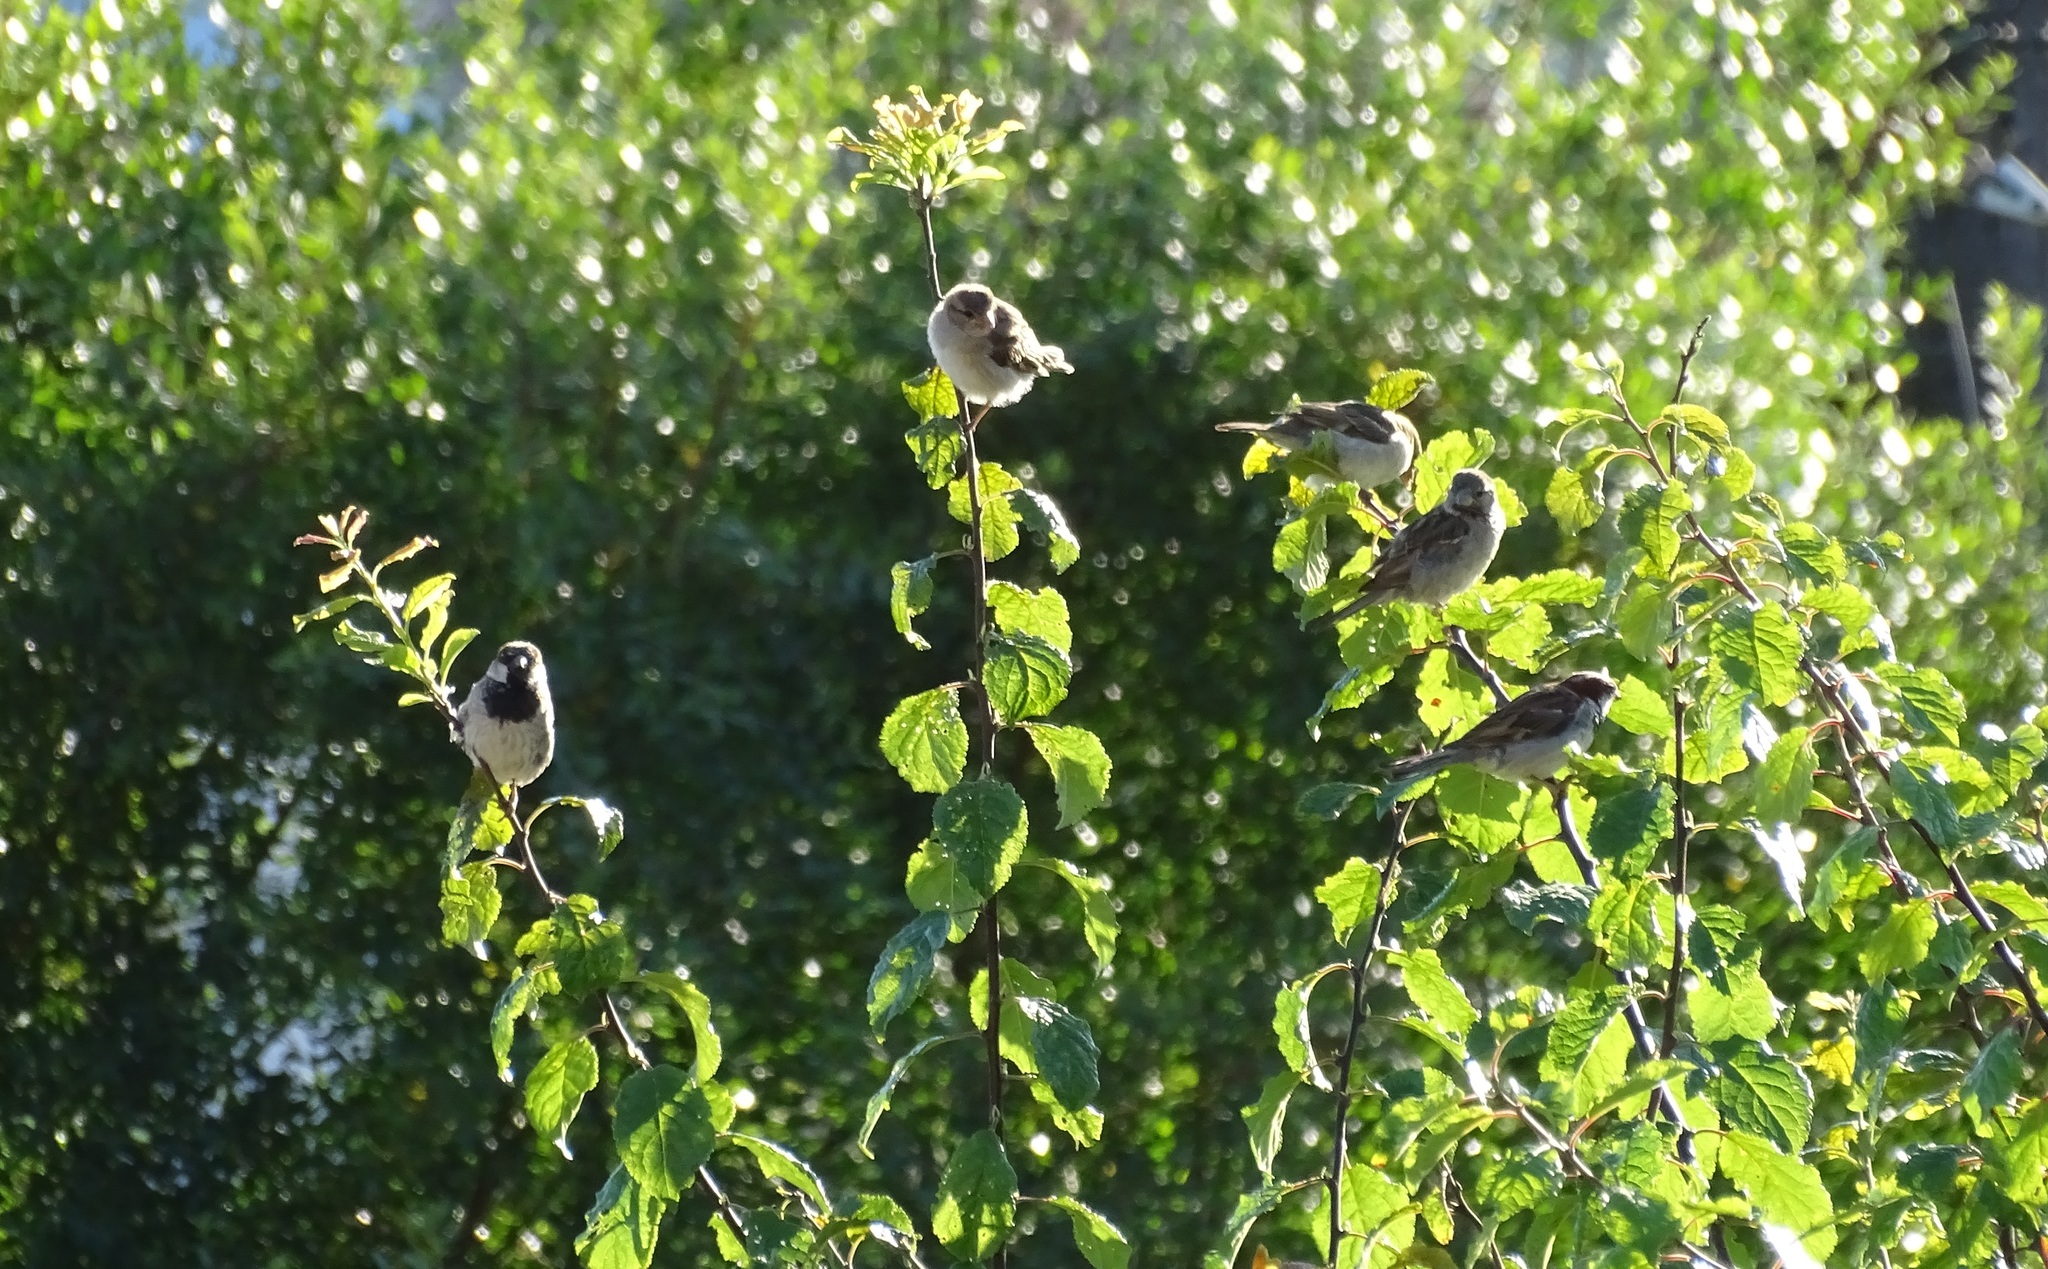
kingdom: Animalia
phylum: Chordata
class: Aves
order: Passeriformes
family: Passeridae
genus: Passer
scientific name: Passer domesticus
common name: House sparrow
